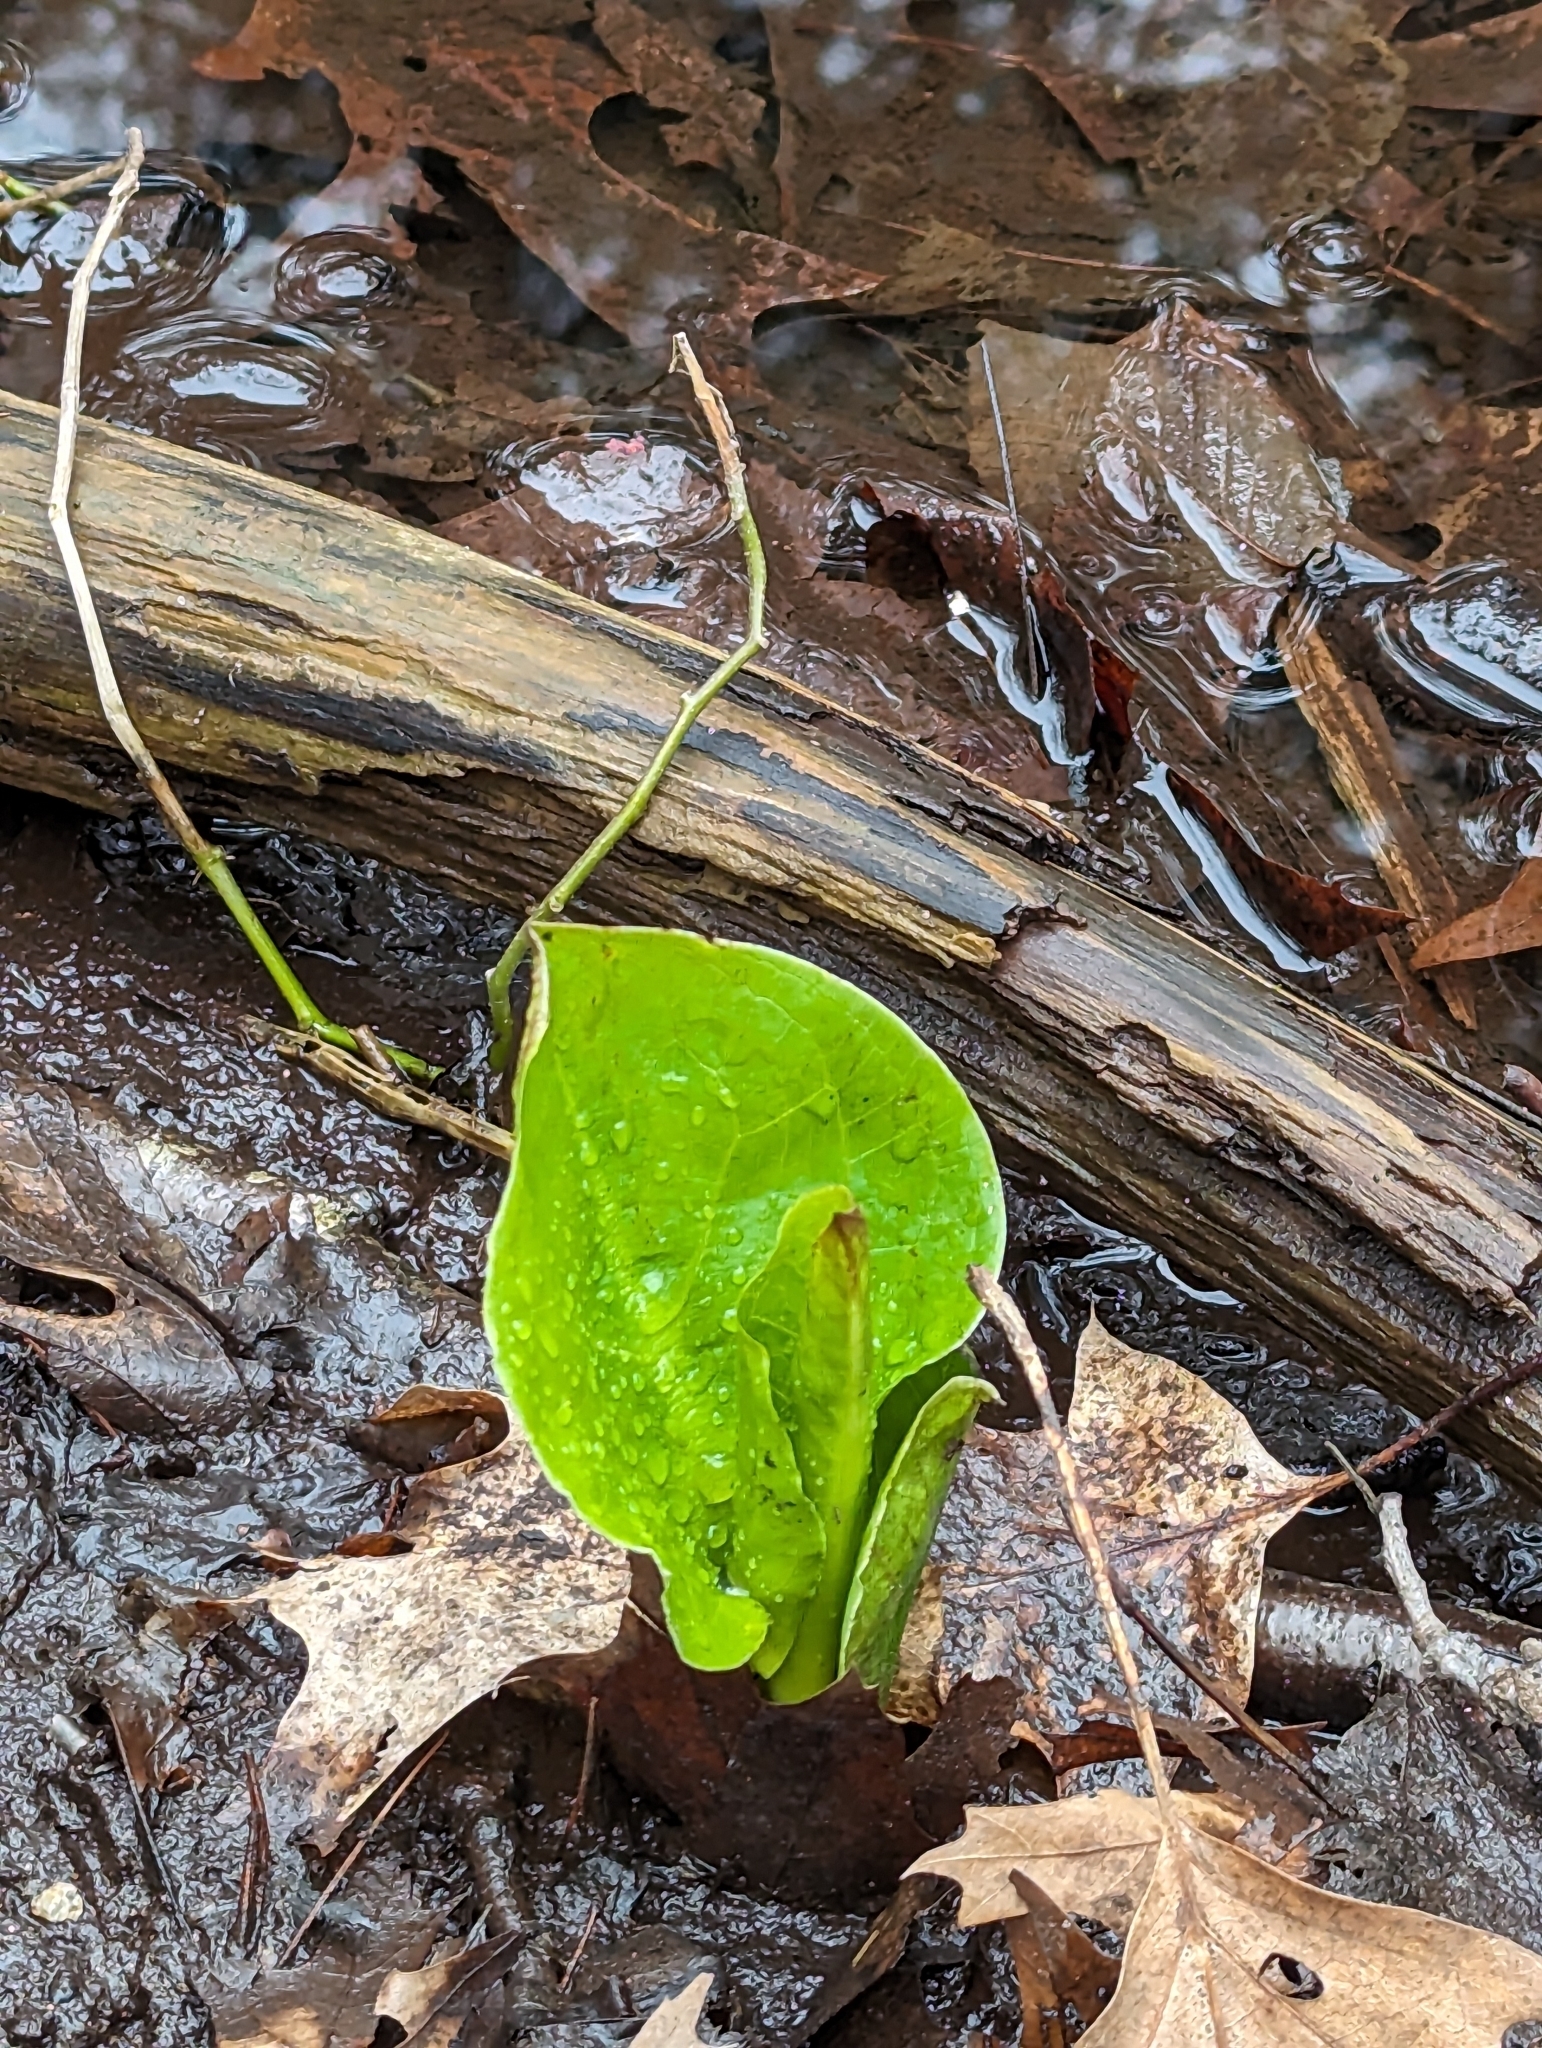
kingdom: Plantae
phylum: Tracheophyta
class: Liliopsida
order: Alismatales
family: Araceae
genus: Symplocarpus
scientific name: Symplocarpus foetidus
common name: Eastern skunk cabbage
